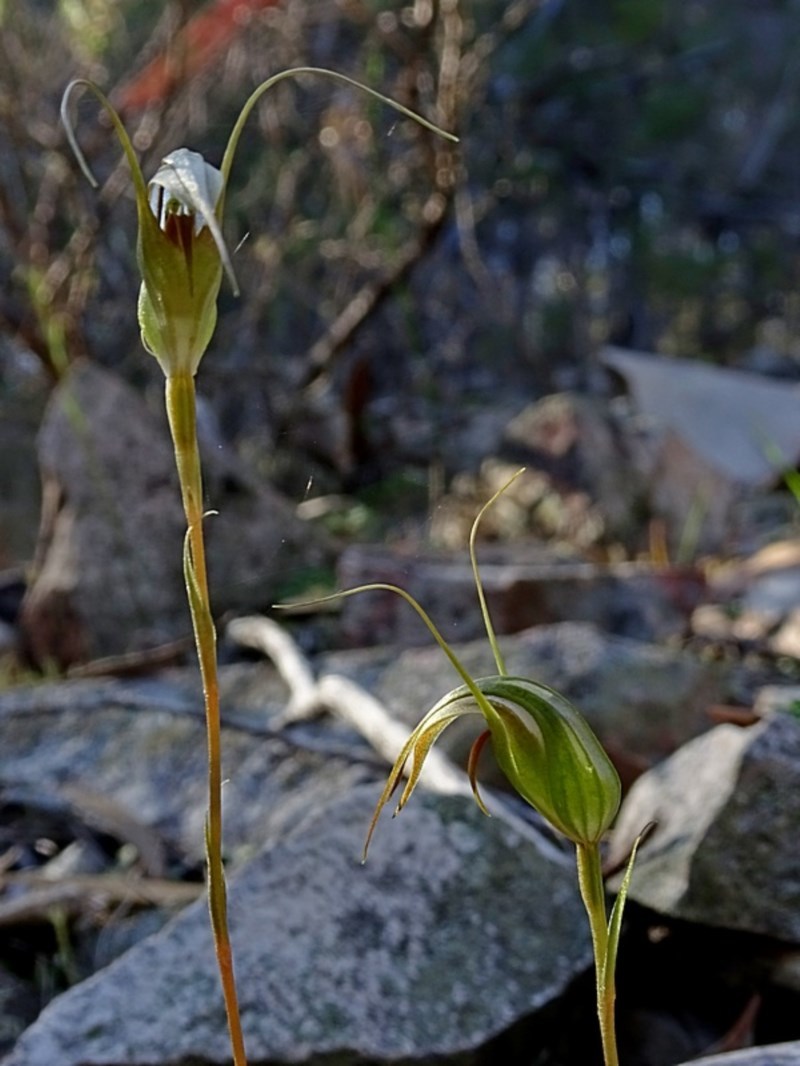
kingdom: Plantae
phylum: Tracheophyta
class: Liliopsida
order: Asparagales
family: Orchidaceae
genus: Pterostylis
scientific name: Pterostylis longipetala
